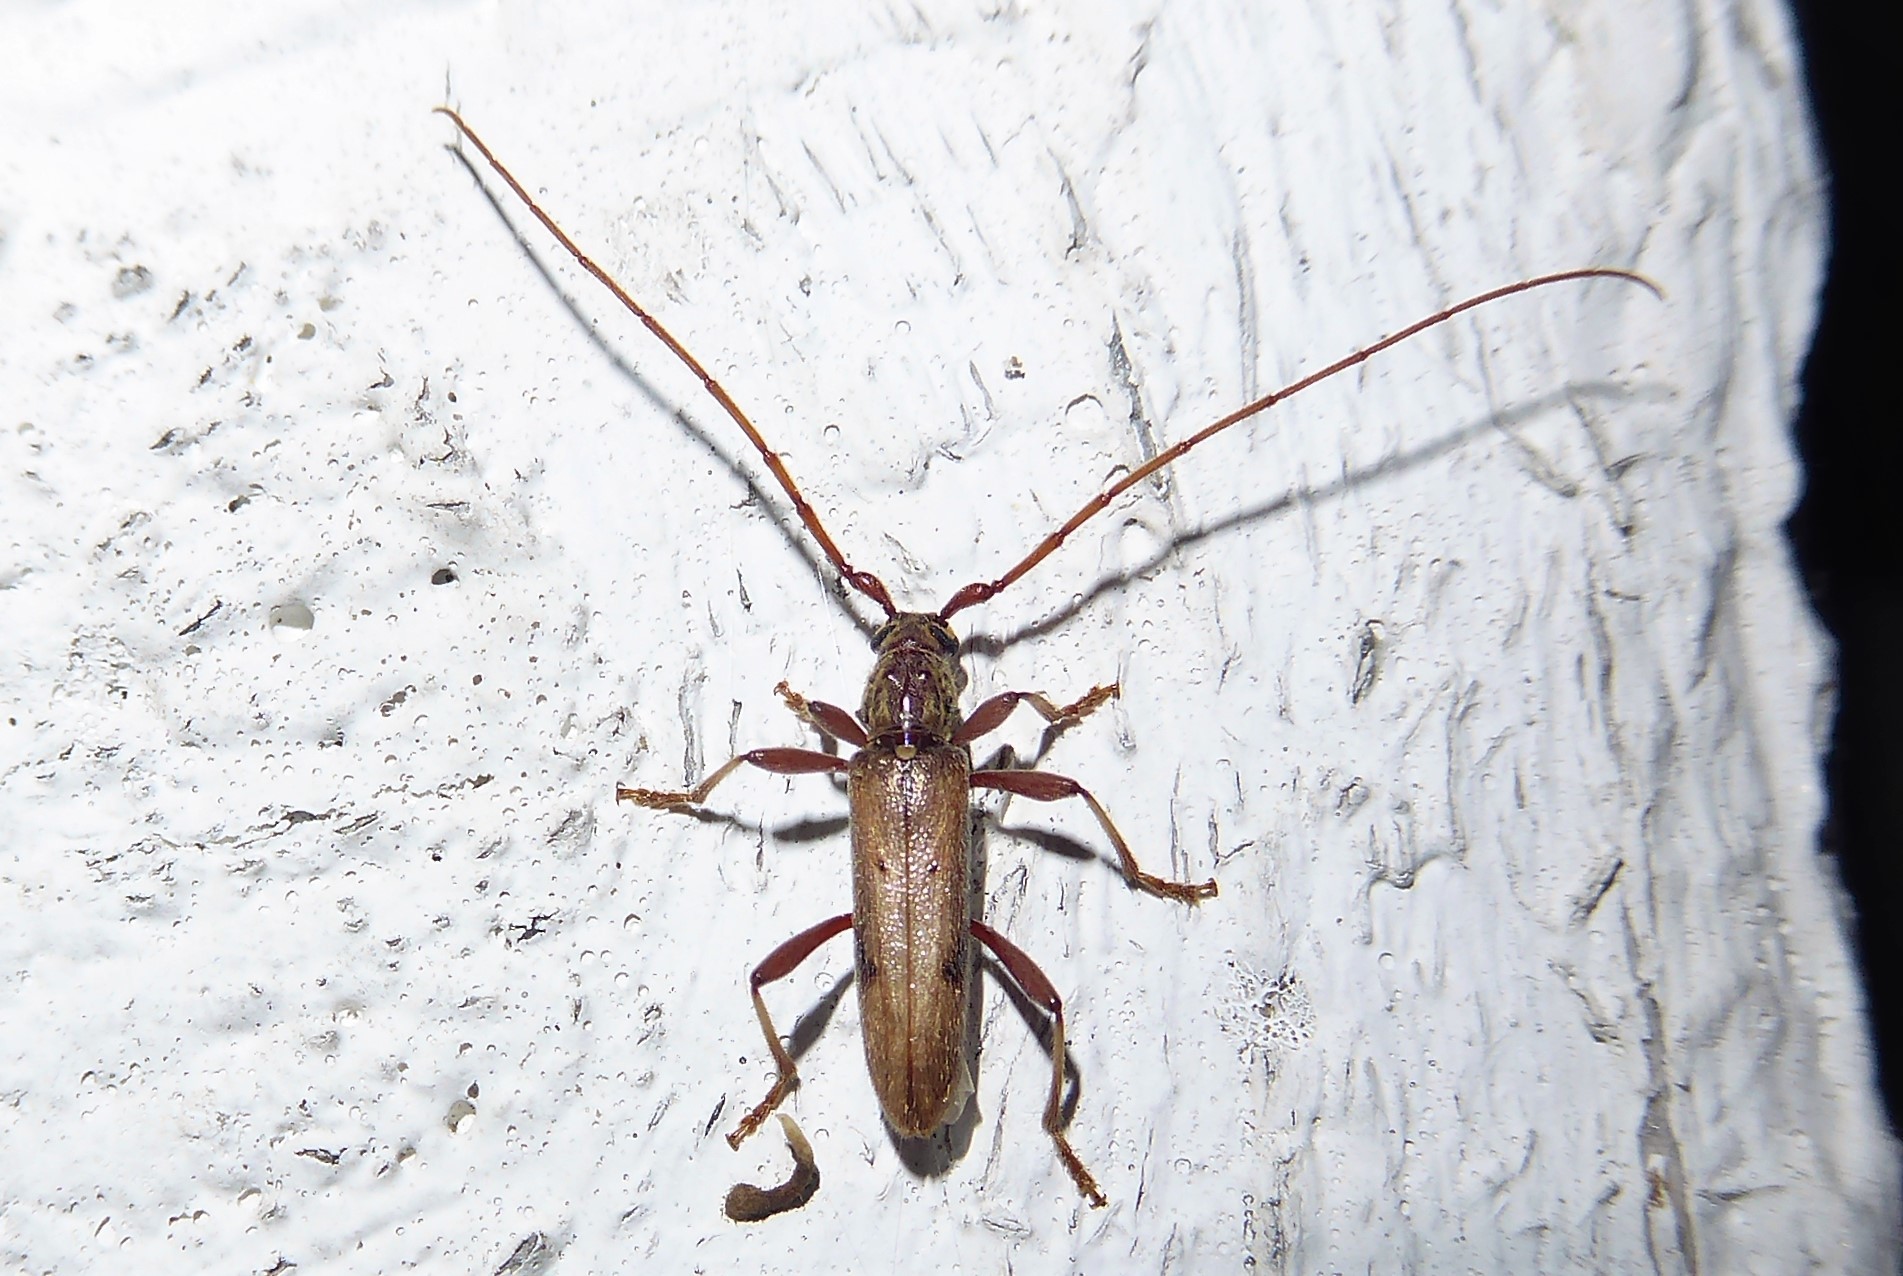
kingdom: Animalia
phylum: Arthropoda
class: Insecta
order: Coleoptera
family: Cerambycidae
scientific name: Cerambycidae
